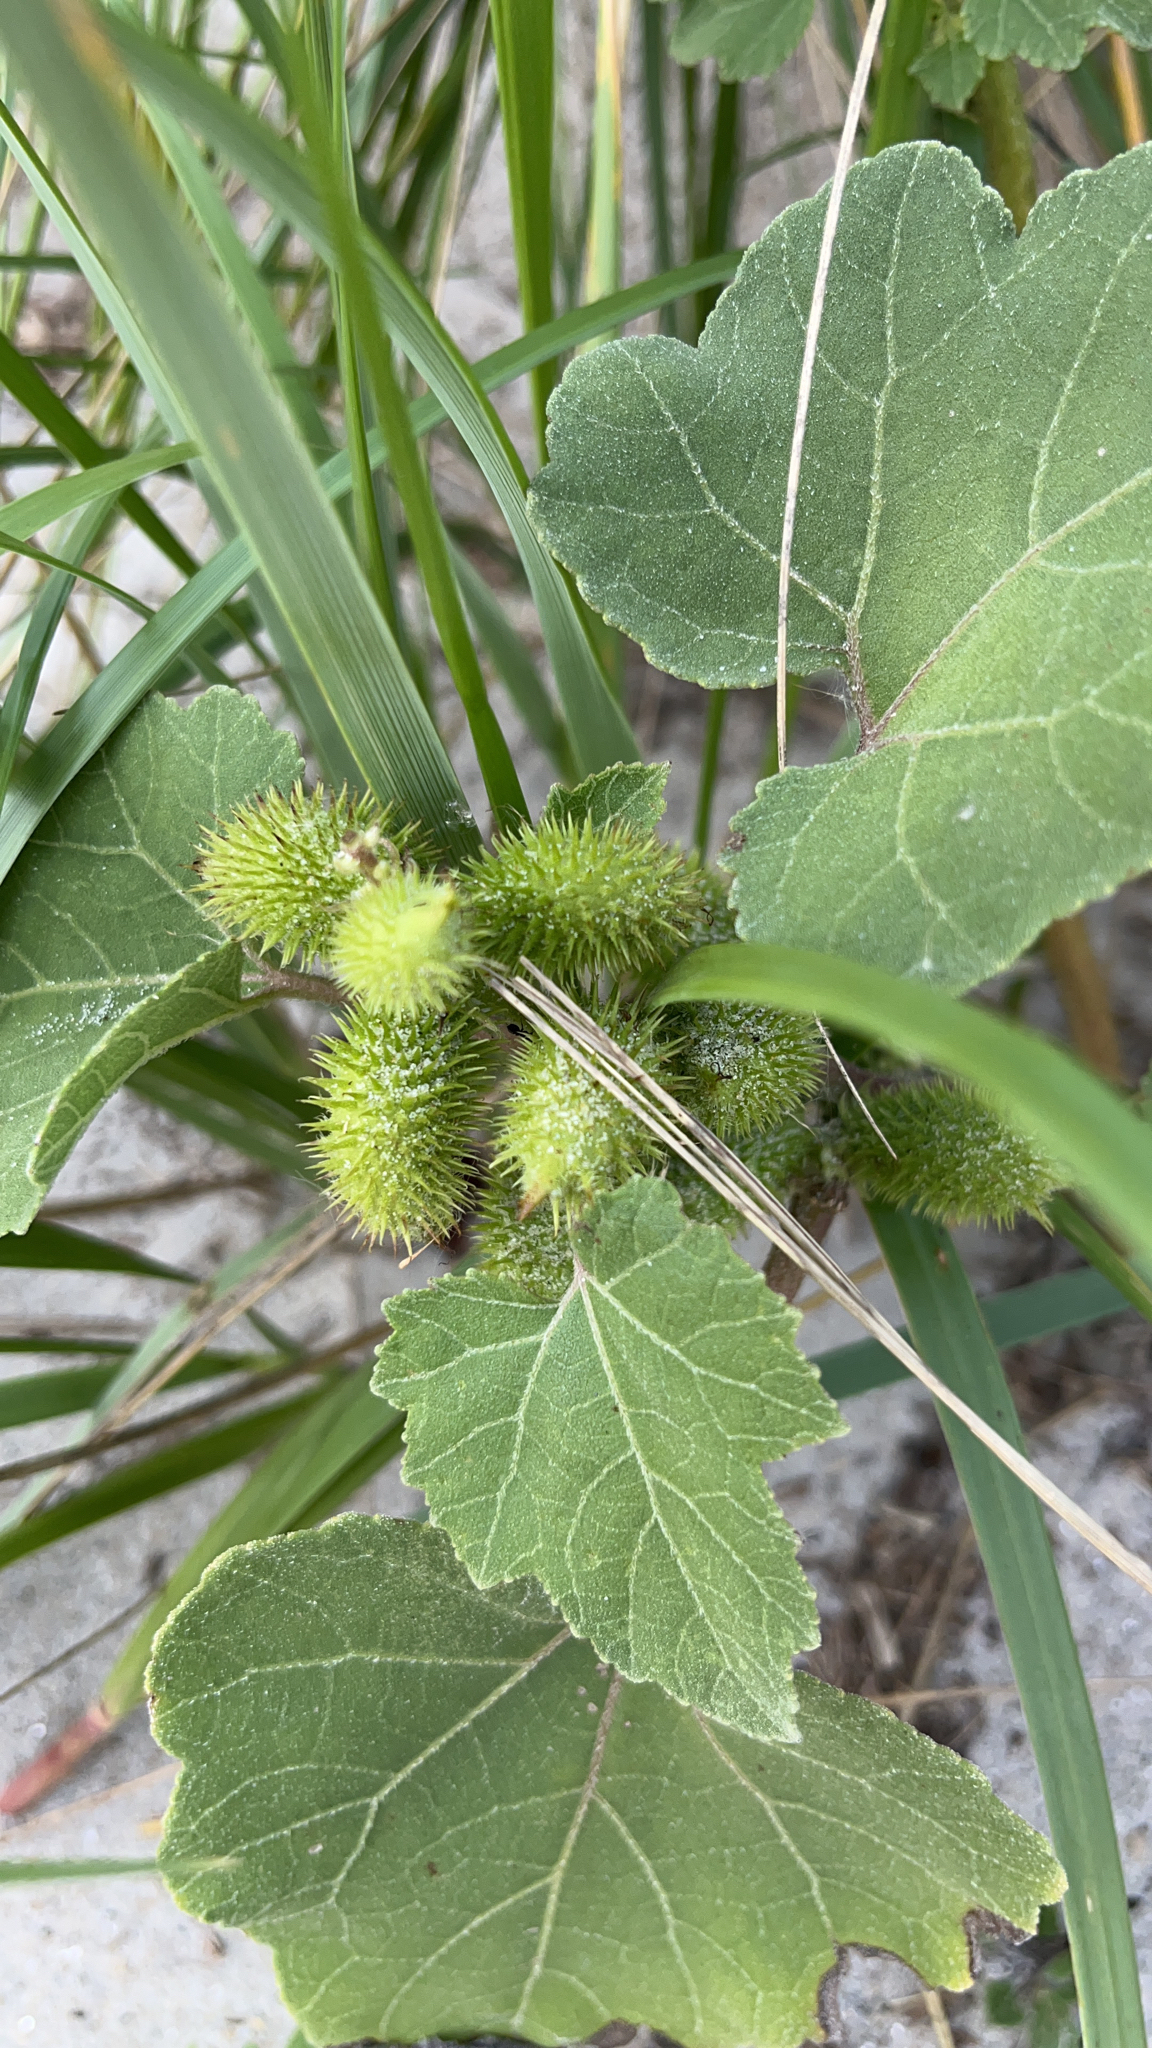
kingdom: Plantae
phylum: Tracheophyta
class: Magnoliopsida
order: Asterales
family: Asteraceae
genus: Xanthium
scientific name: Xanthium strumarium
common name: Rough cocklebur
